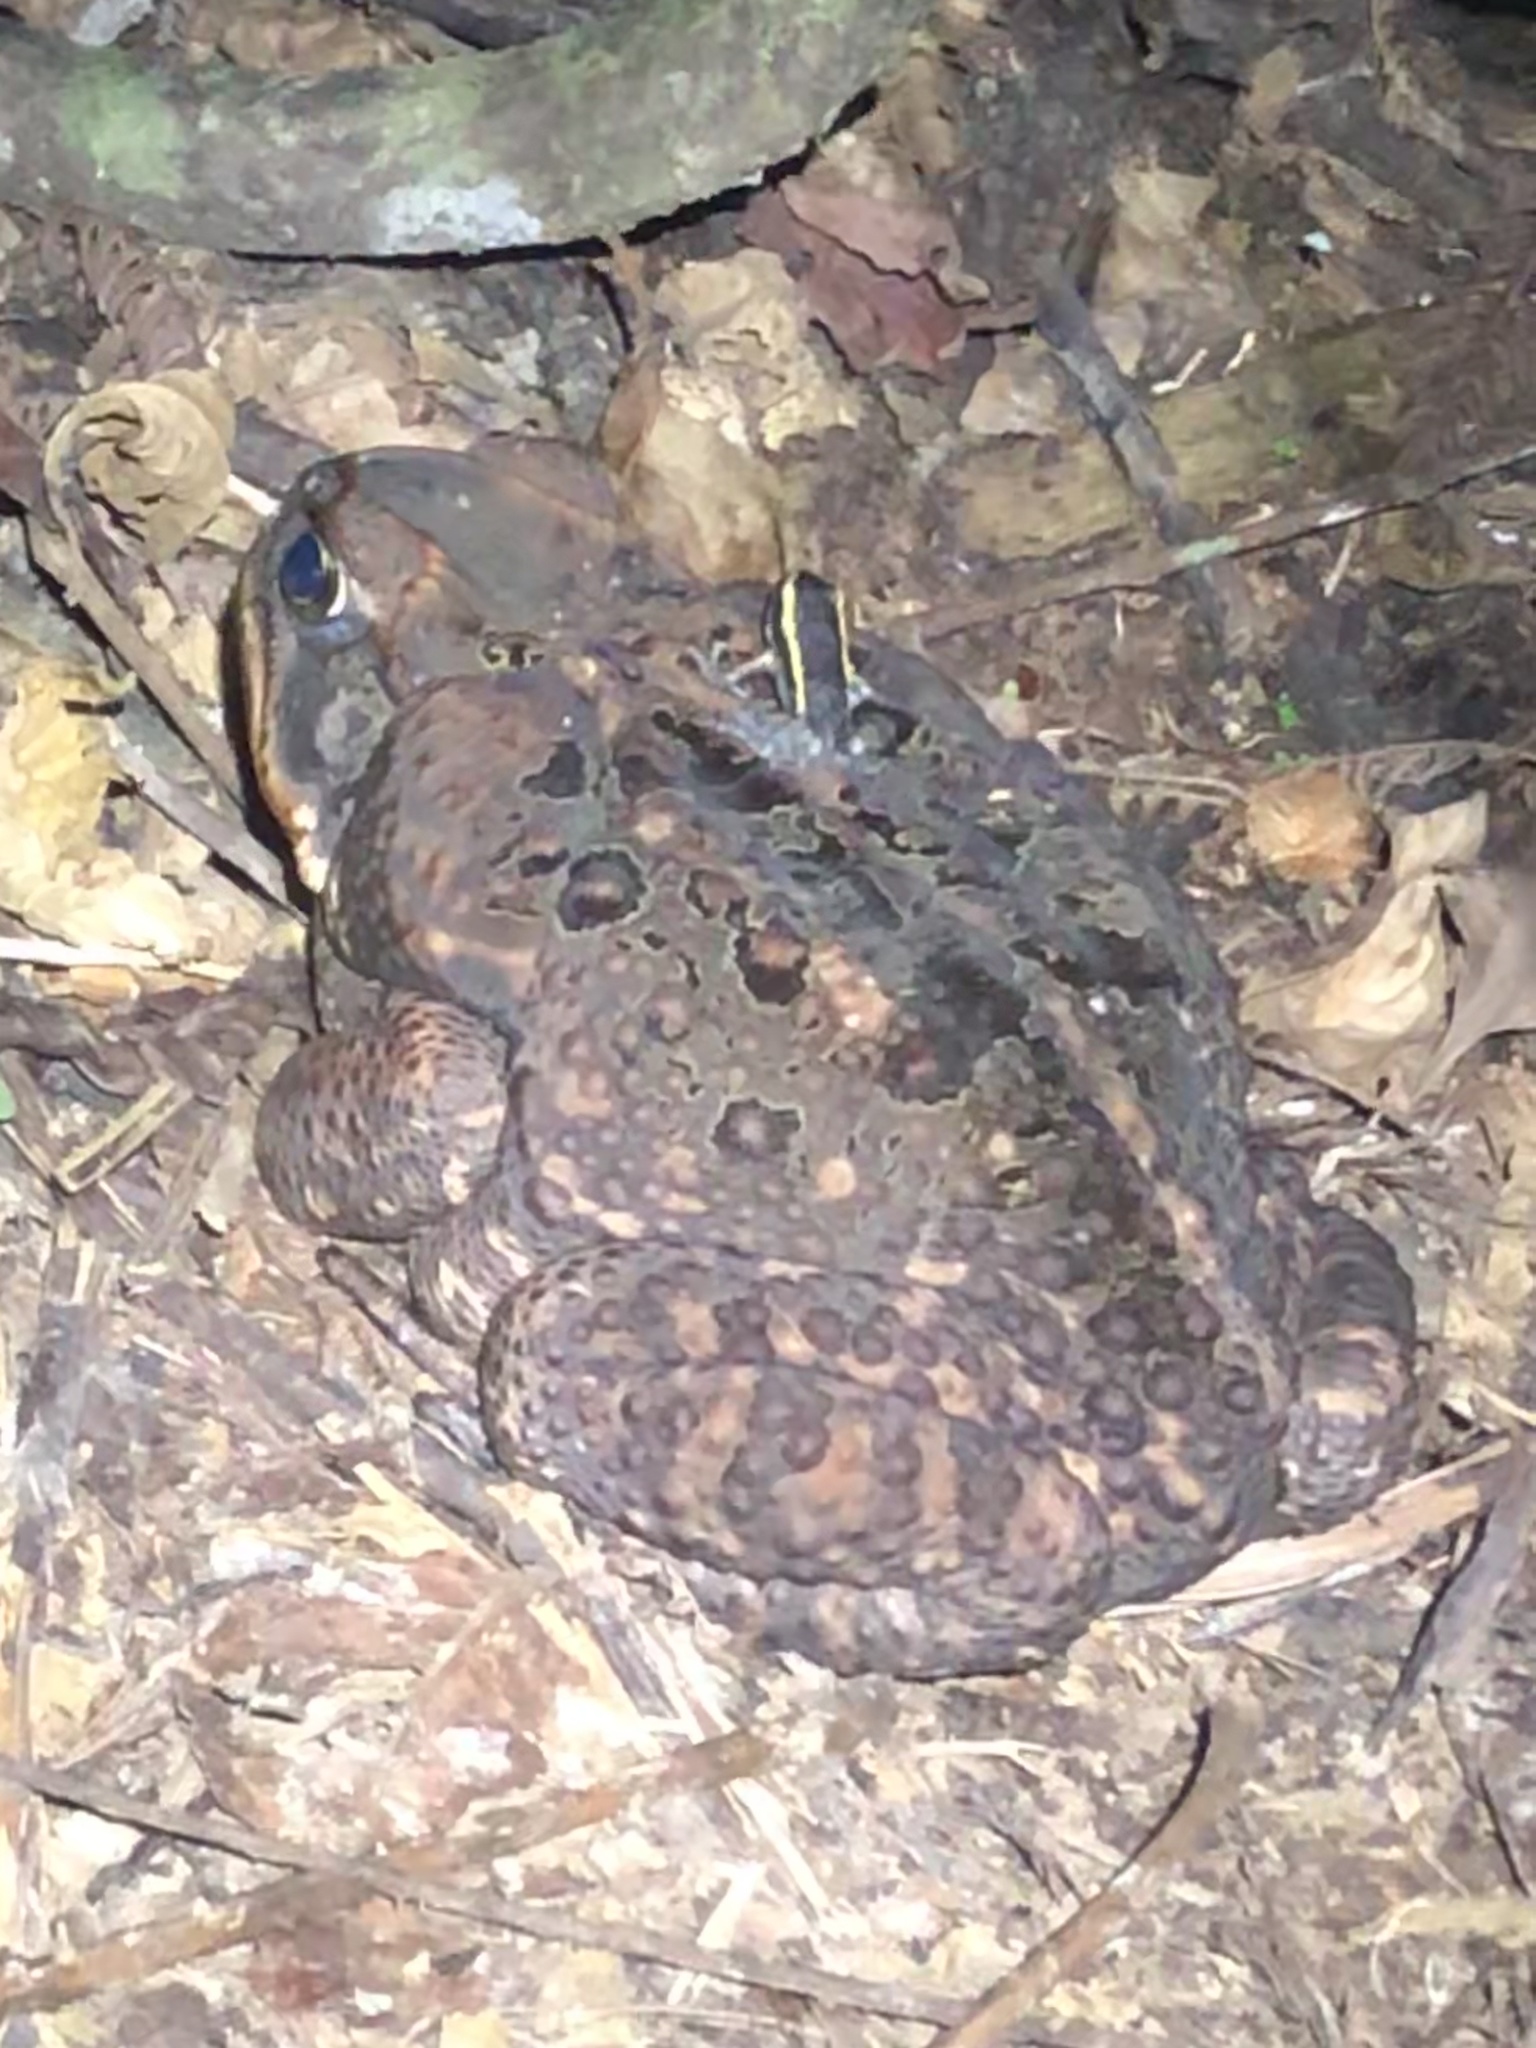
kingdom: Animalia
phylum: Chordata
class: Amphibia
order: Anura
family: Leptodactylidae
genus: Lithodytes
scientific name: Lithodytes lineatus
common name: Gold-striped frog
